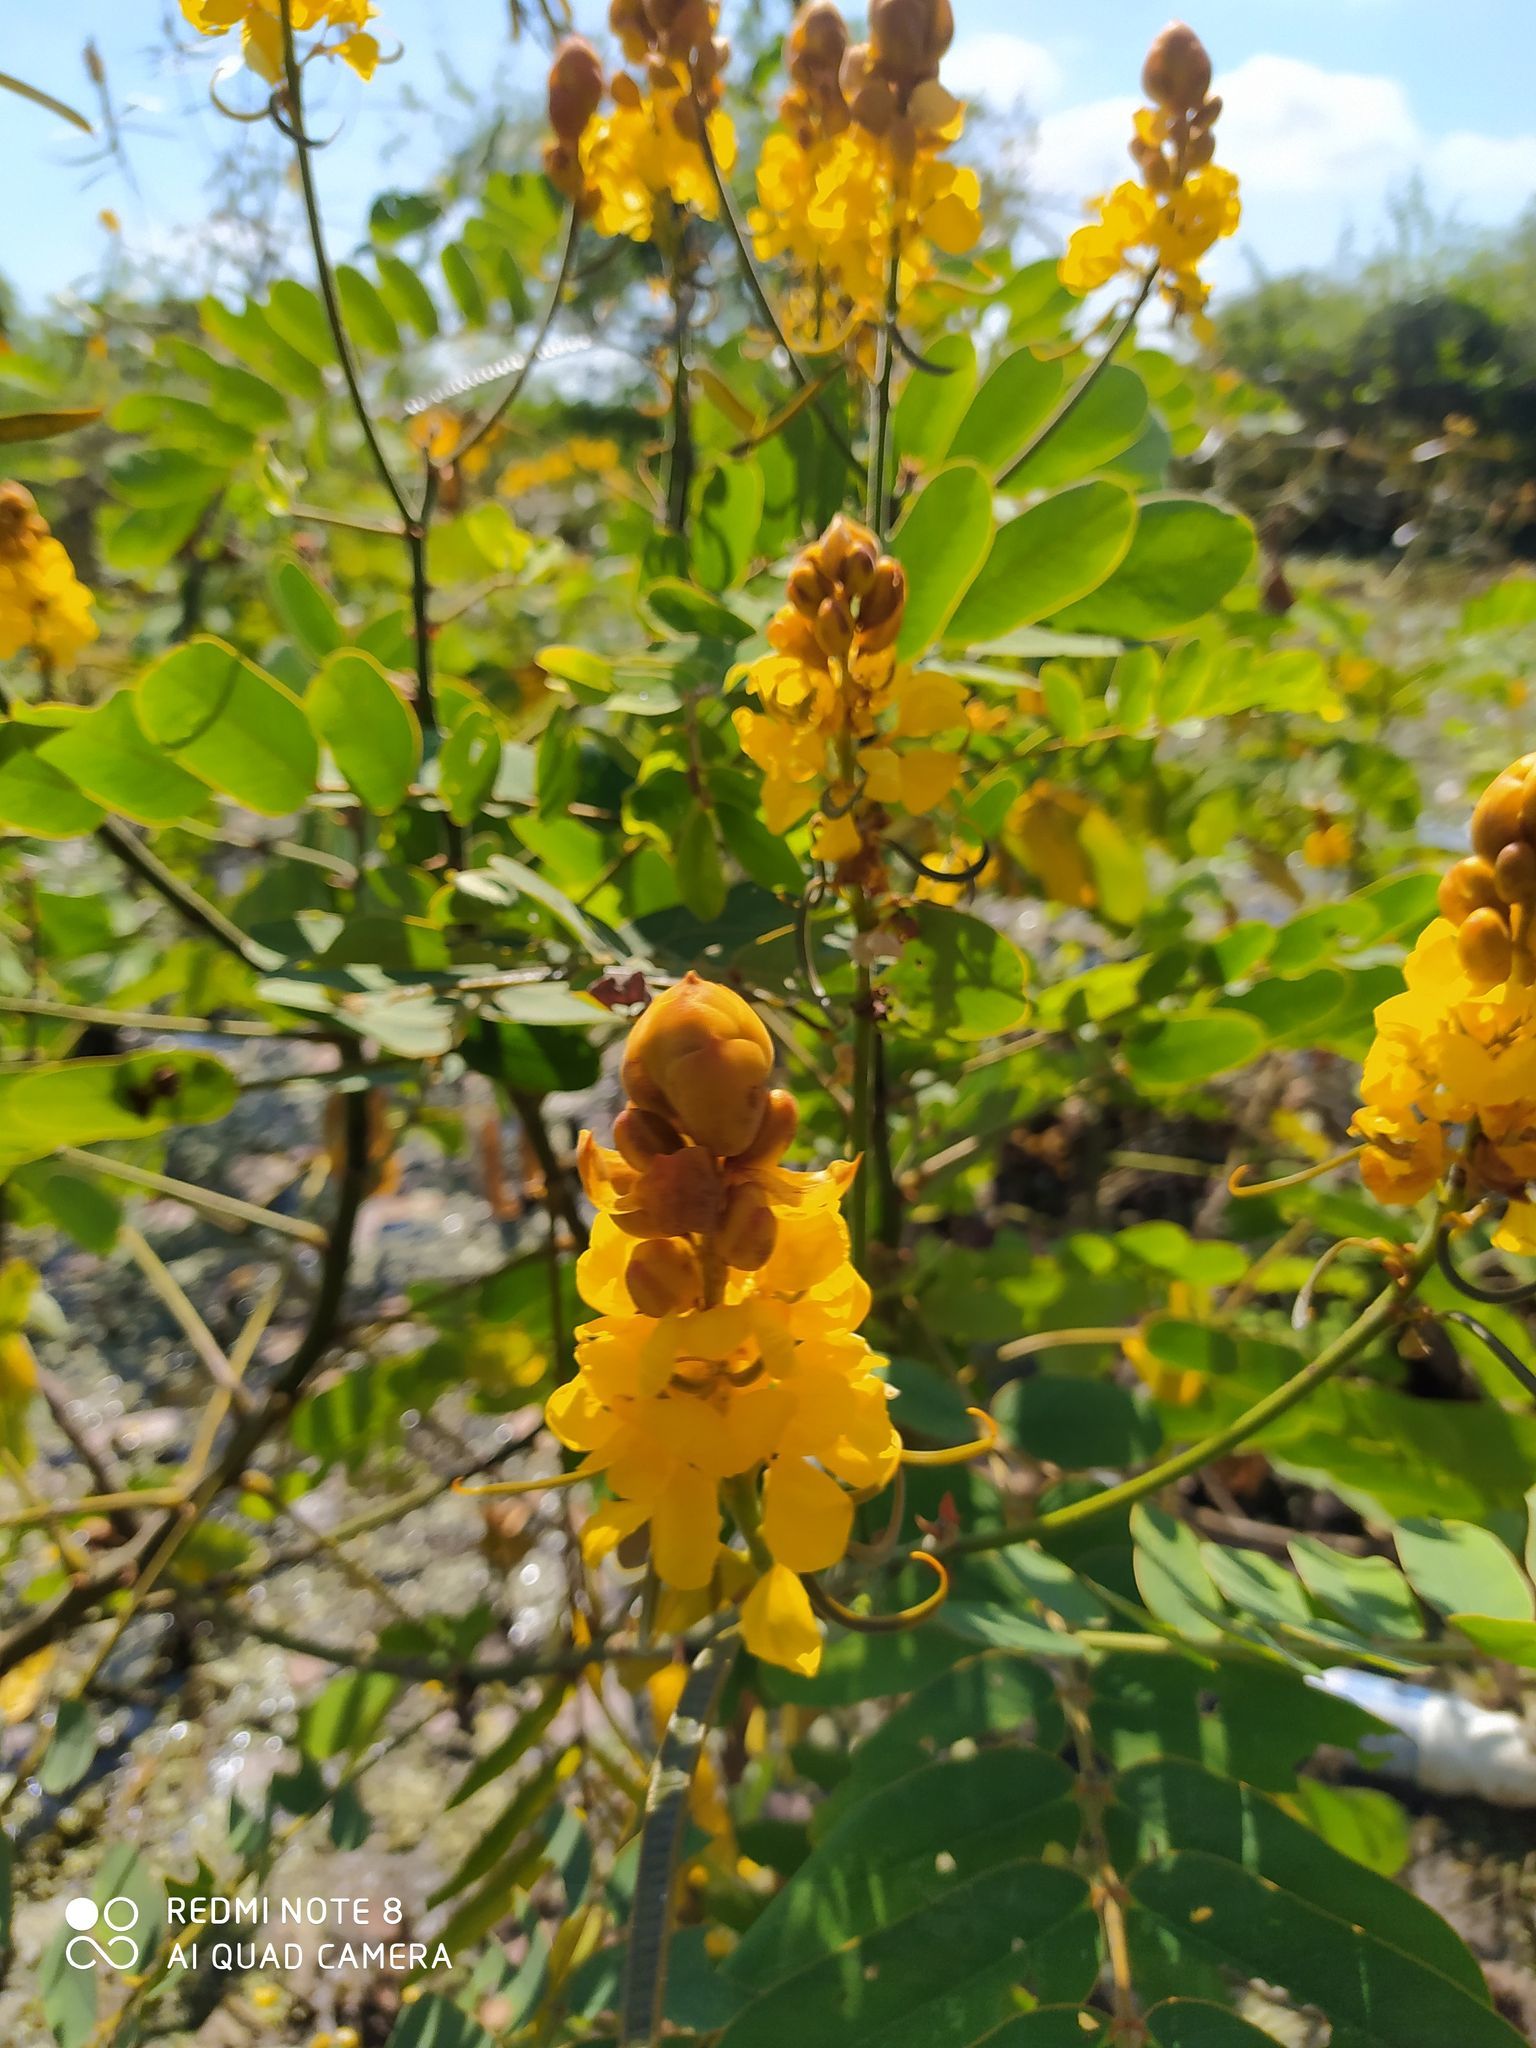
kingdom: Plantae
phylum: Tracheophyta
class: Magnoliopsida
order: Fabales
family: Fabaceae
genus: Senna
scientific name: Senna reticulata
